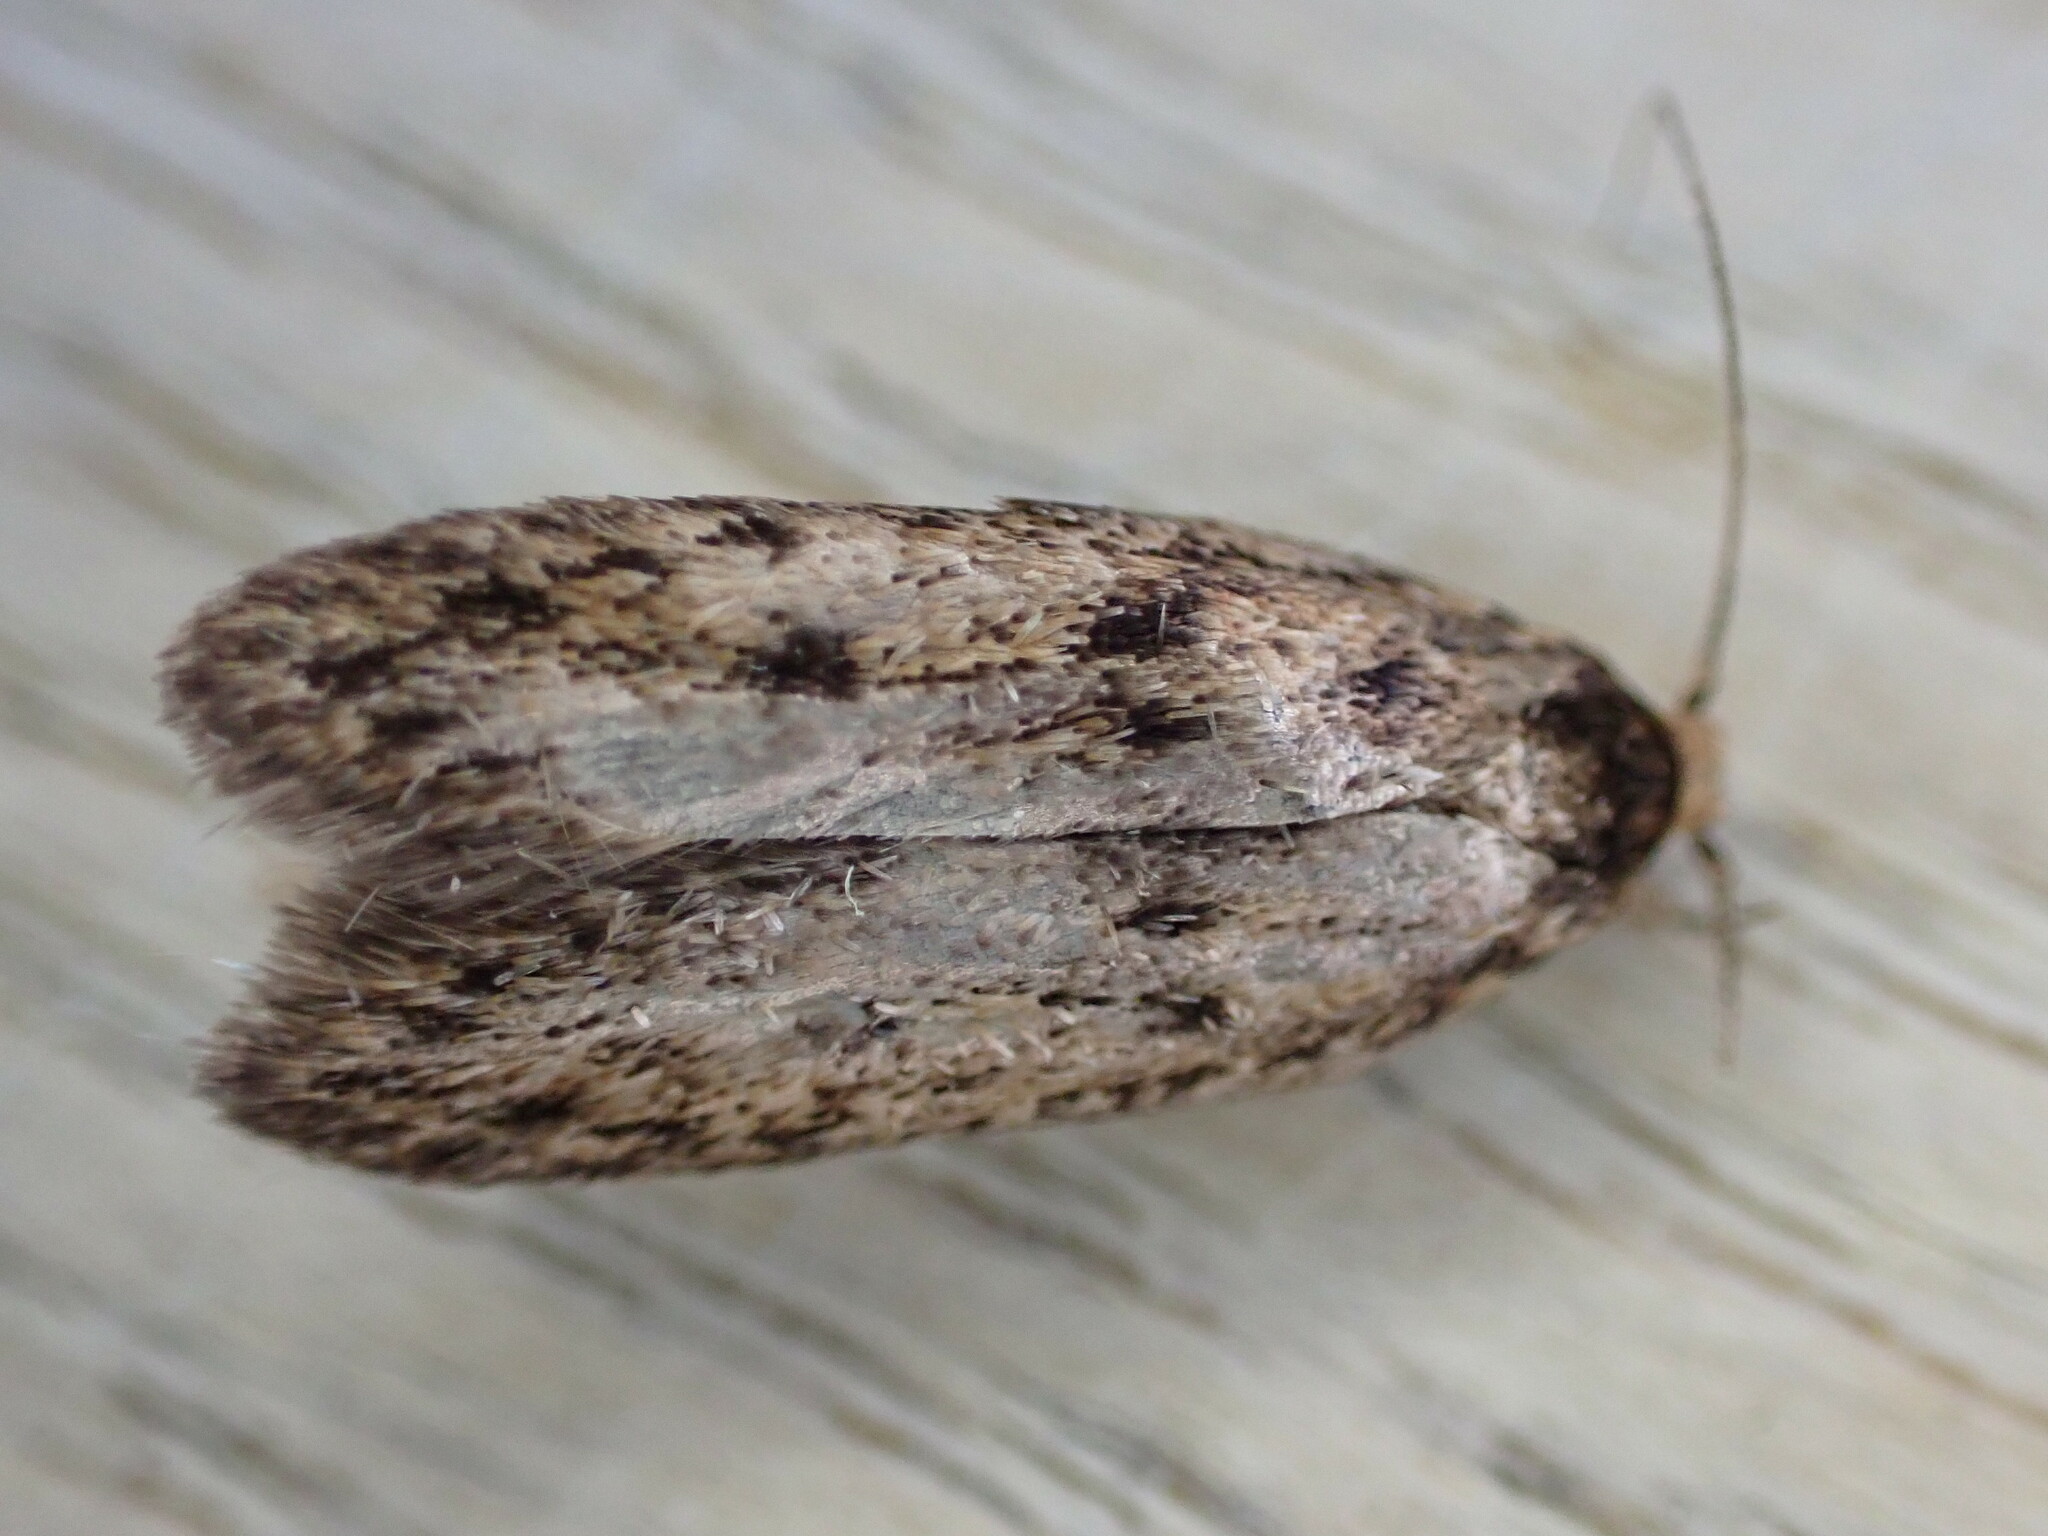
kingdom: Animalia
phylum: Arthropoda
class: Insecta
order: Lepidoptera
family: Oecophoridae
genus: Hofmannophila
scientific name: Hofmannophila pseudospretella
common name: Brown house moth
